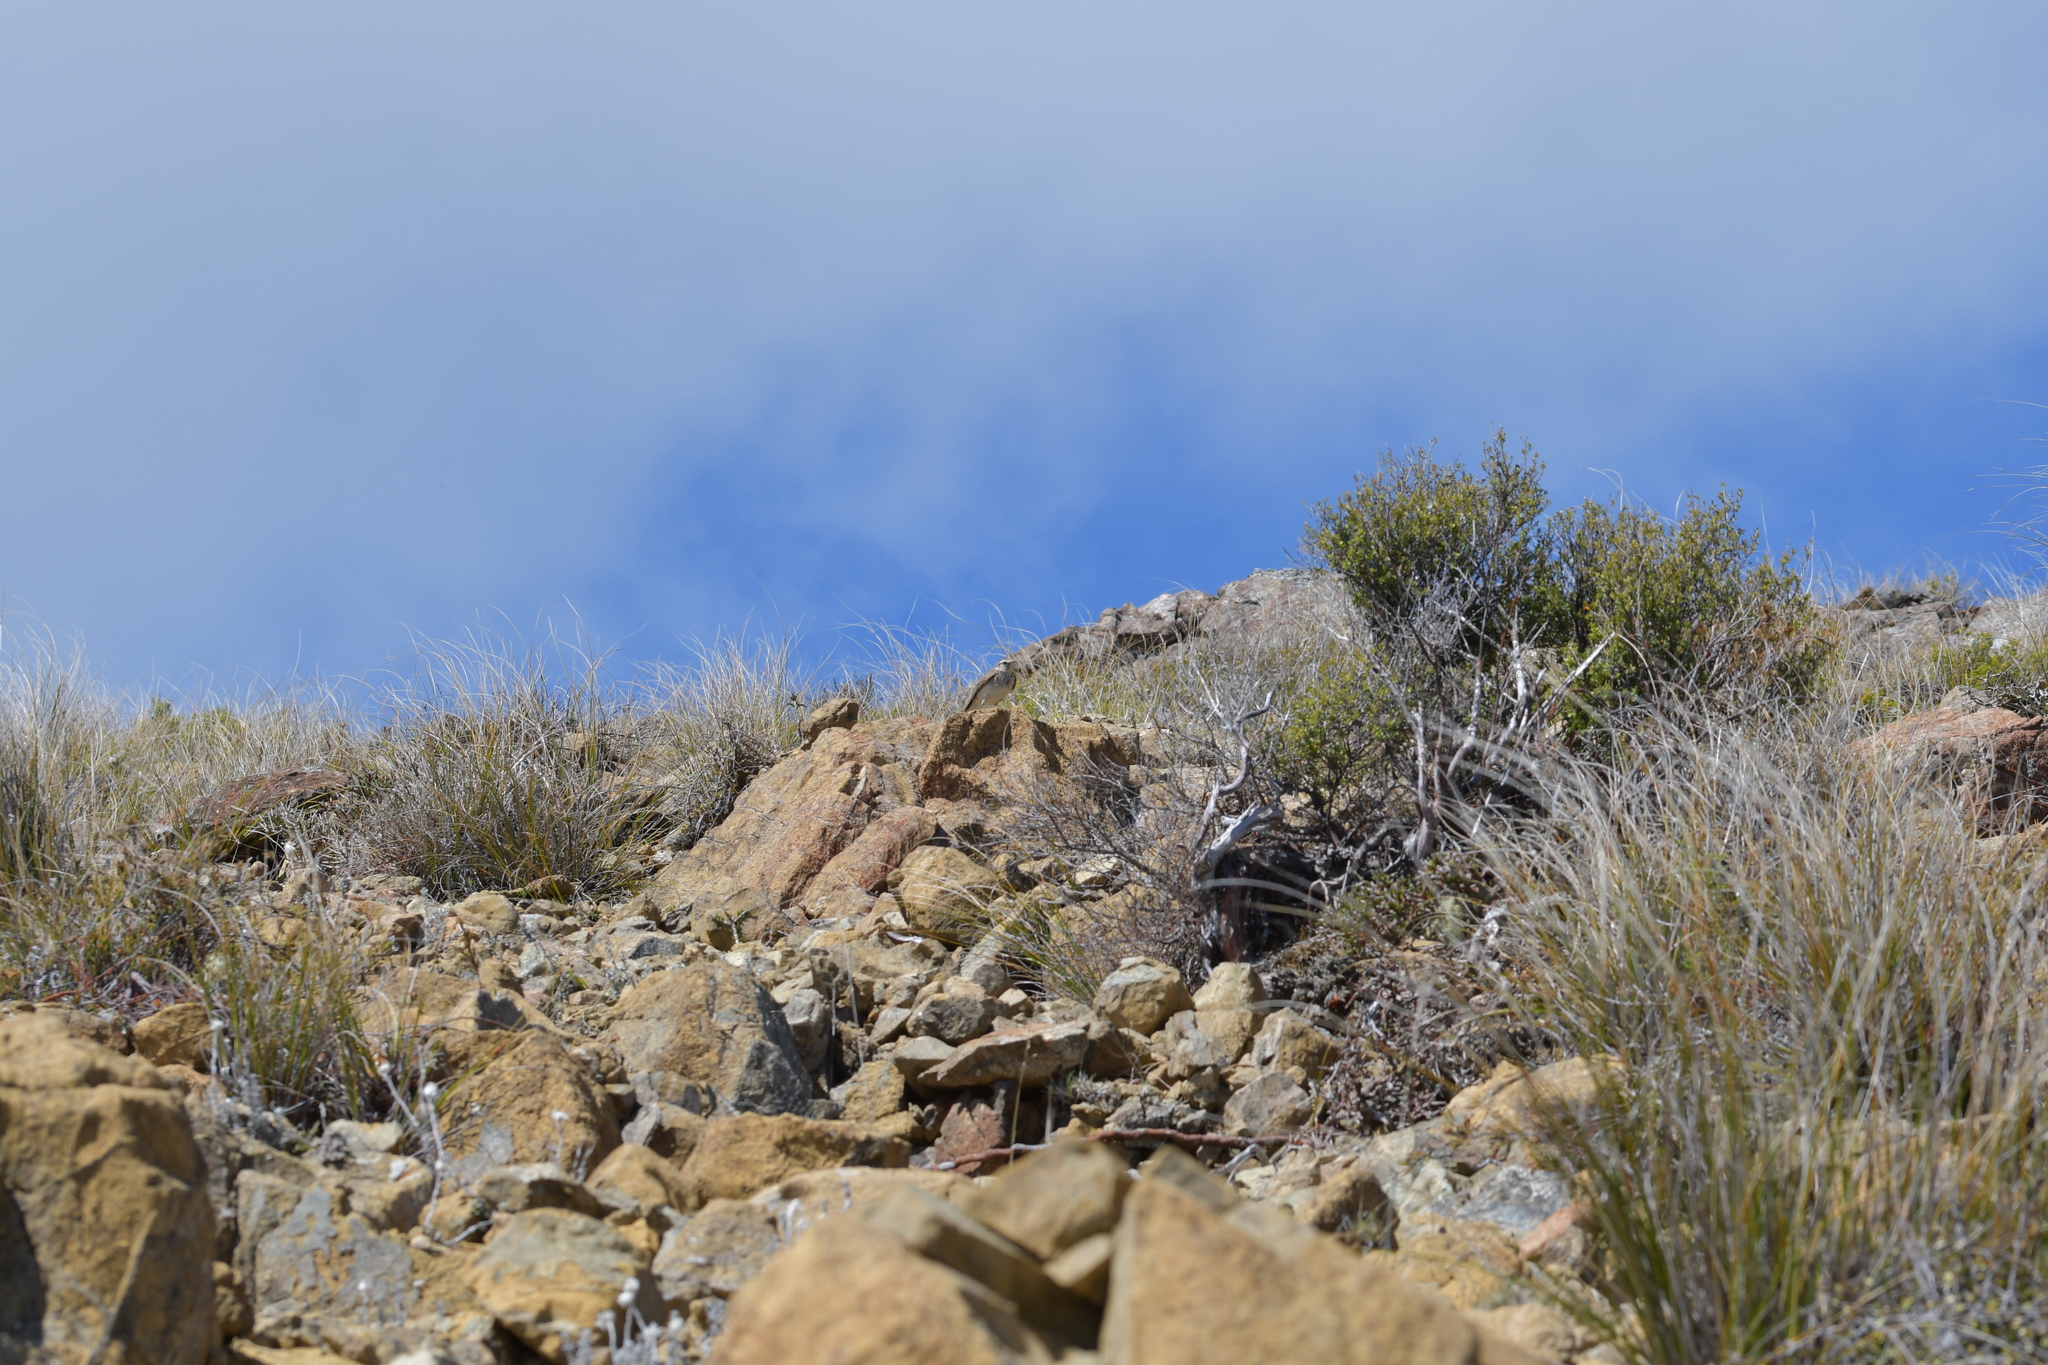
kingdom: Animalia
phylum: Chordata
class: Aves
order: Passeriformes
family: Motacillidae
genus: Anthus
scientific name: Anthus novaeseelandiae
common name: New zealand pipit
